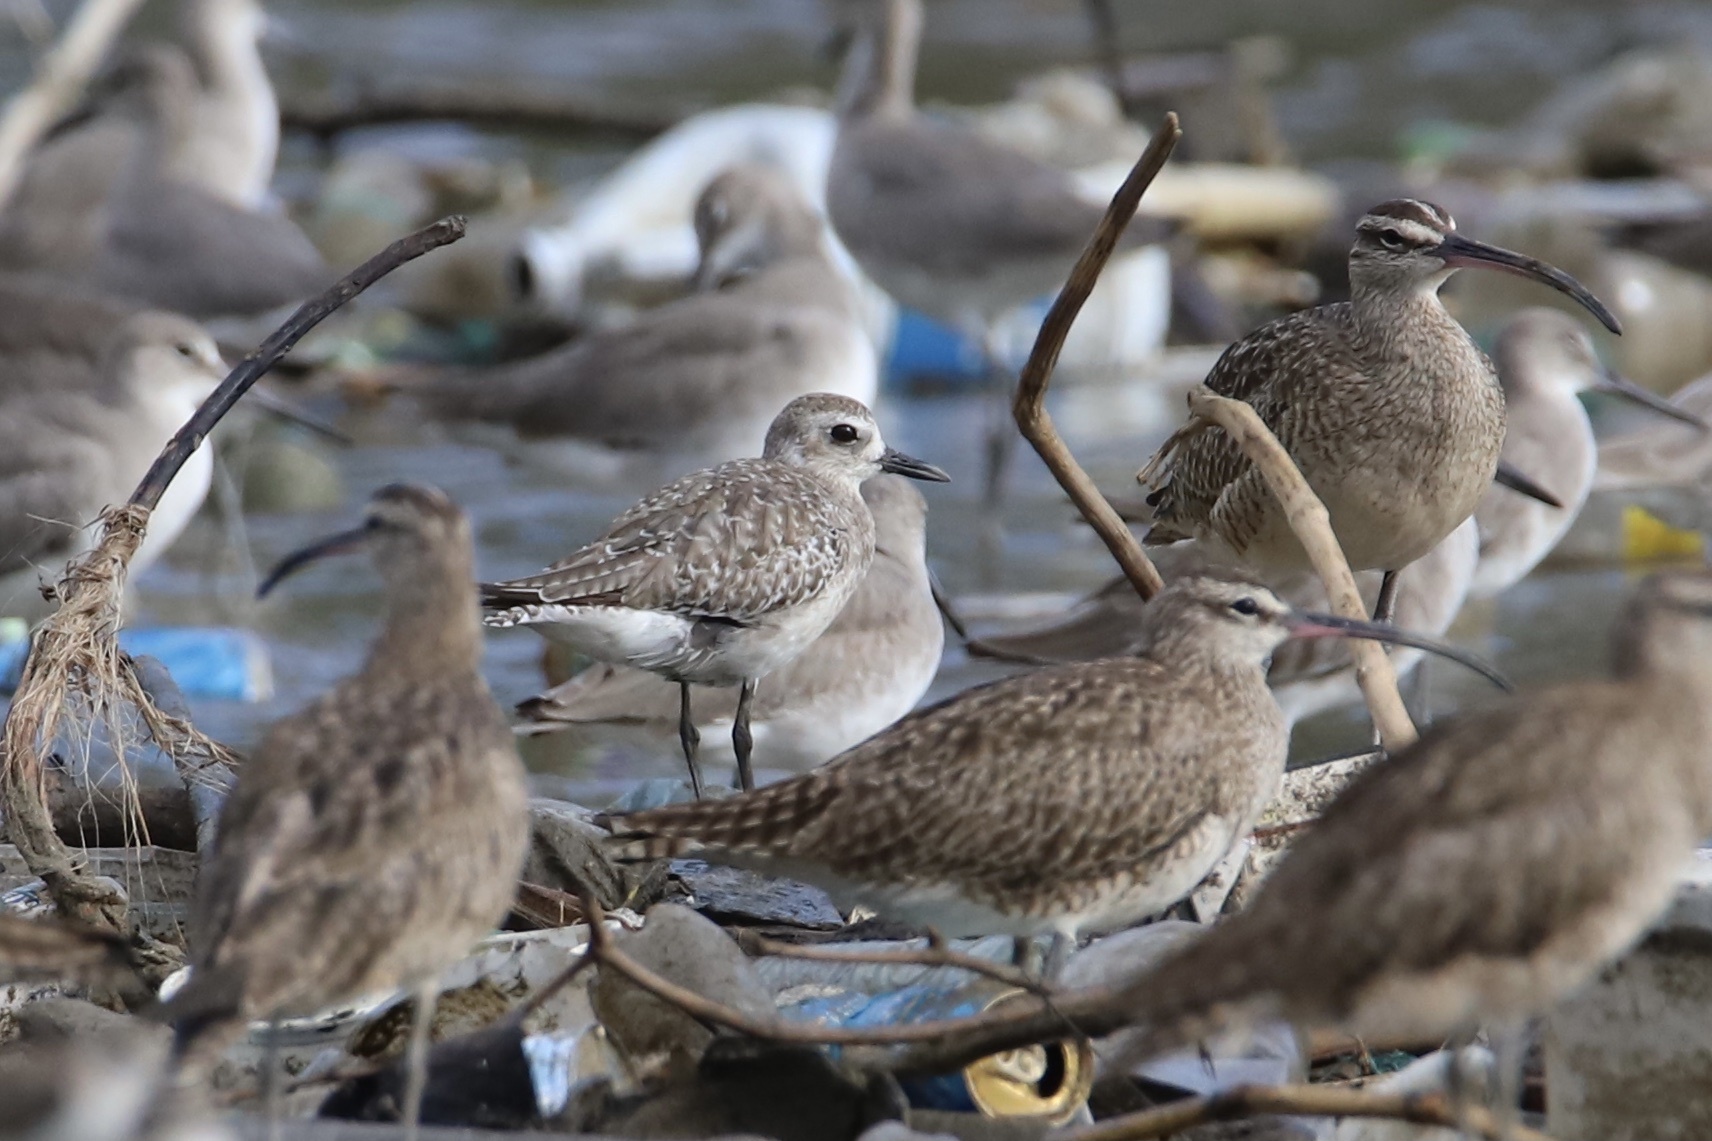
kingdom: Animalia
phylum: Chordata
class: Aves
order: Charadriiformes
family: Charadriidae
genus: Pluvialis
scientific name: Pluvialis squatarola
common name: Grey plover
